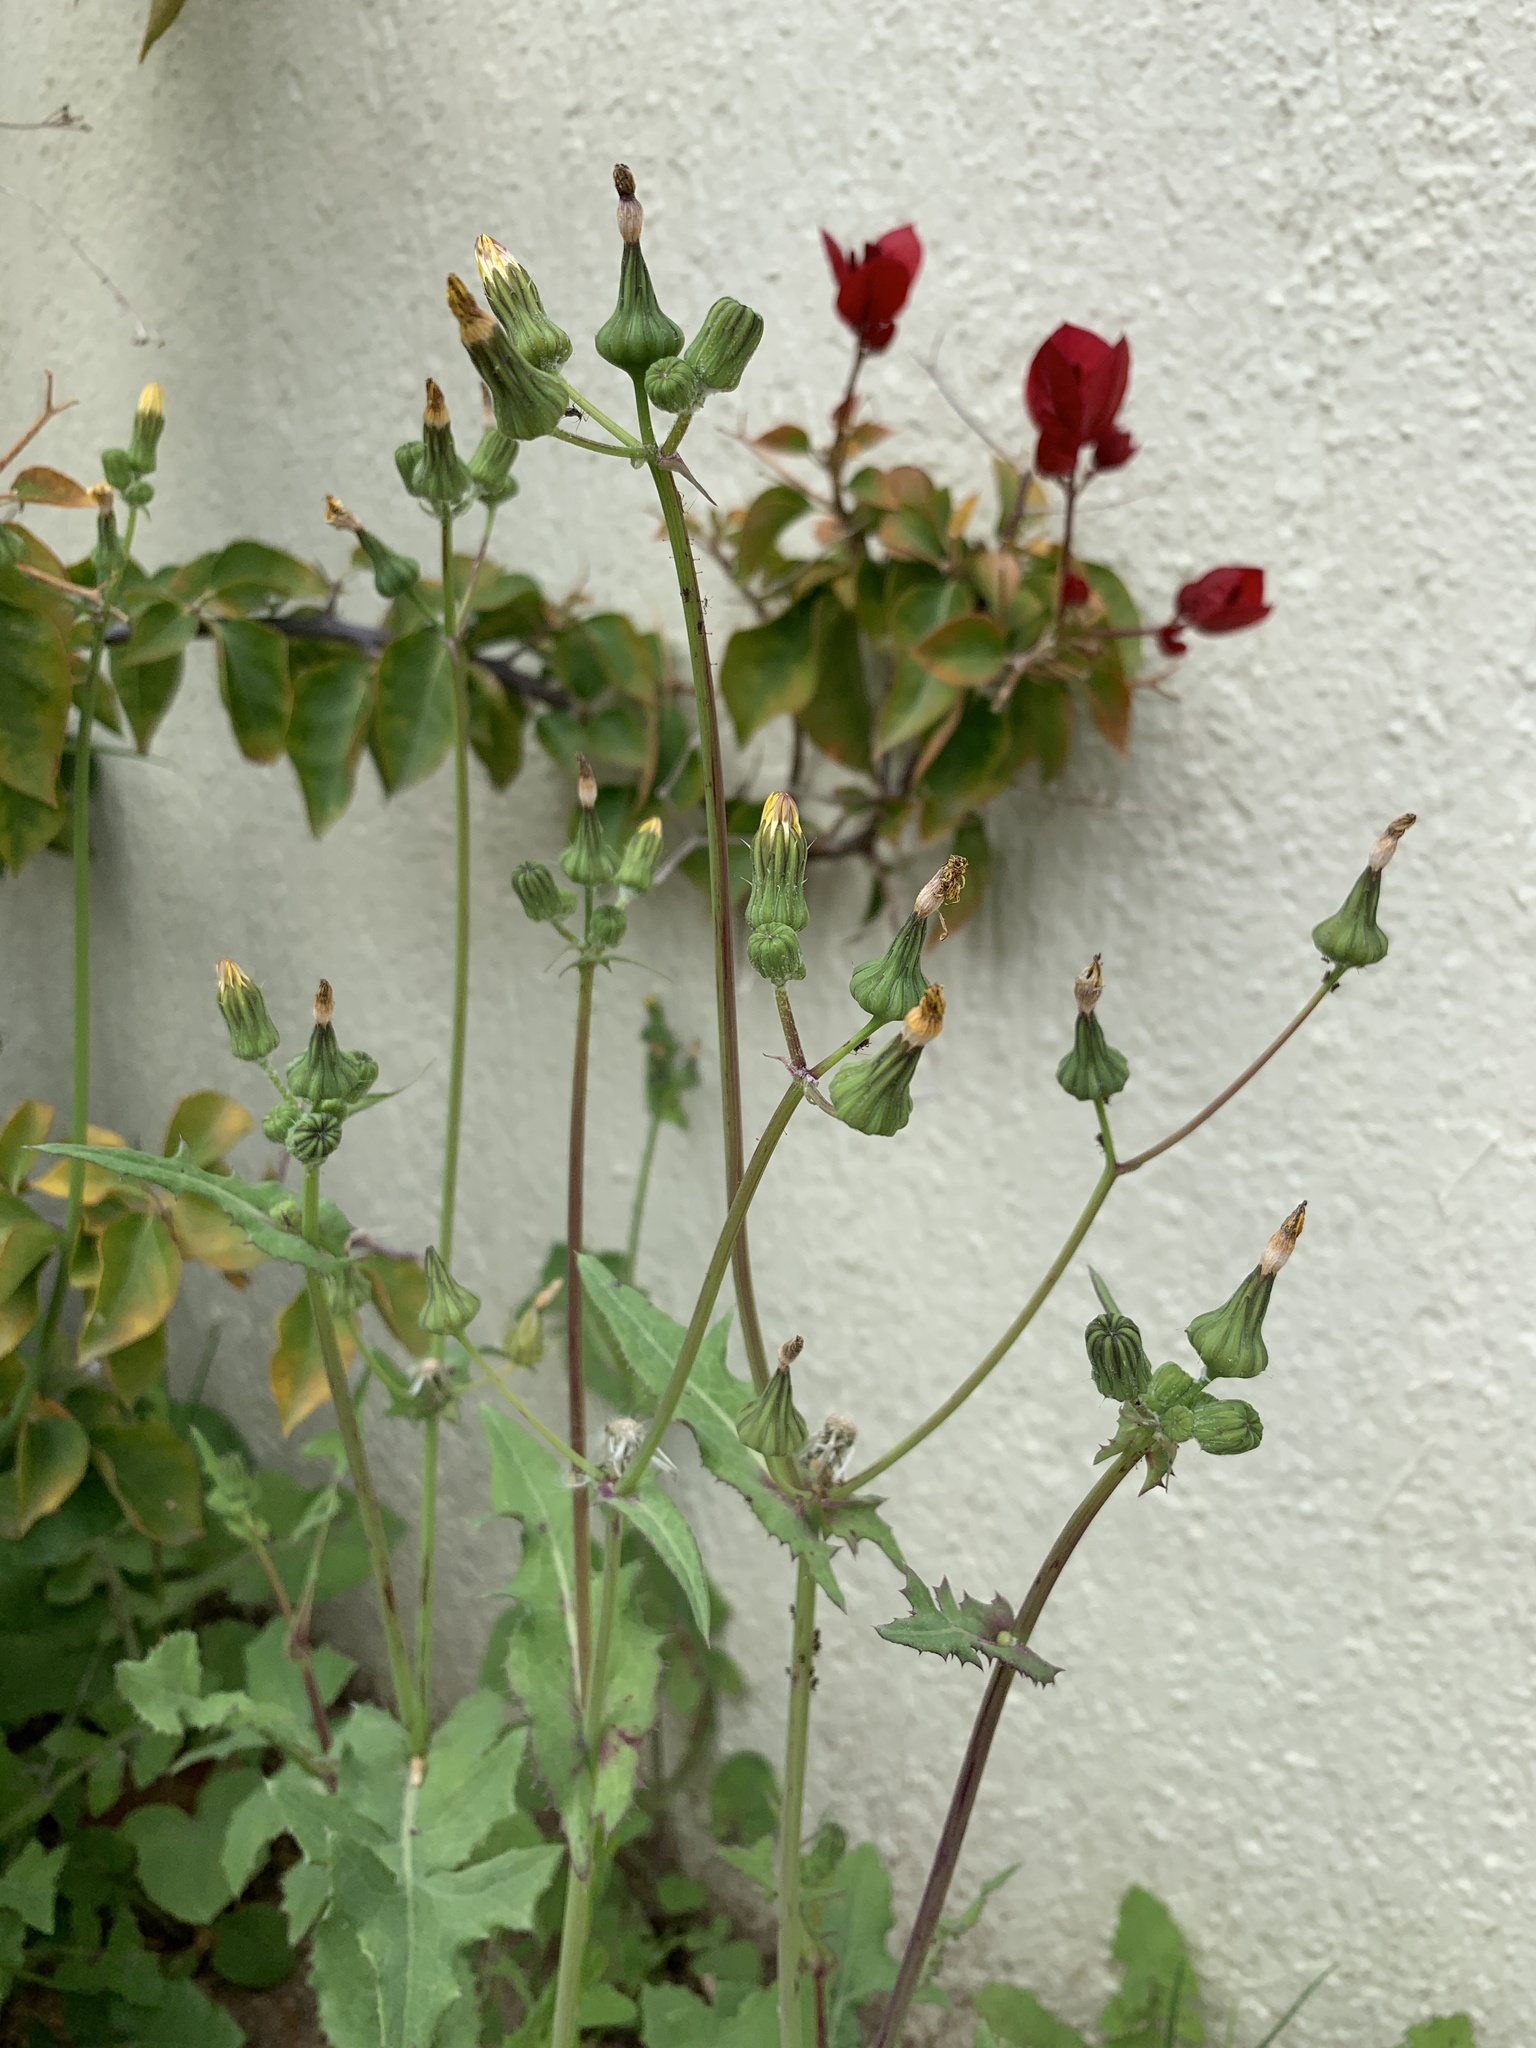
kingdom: Plantae
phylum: Tracheophyta
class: Magnoliopsida
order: Asterales
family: Asteraceae
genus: Sonchus
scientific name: Sonchus oleraceus
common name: Common sowthistle
